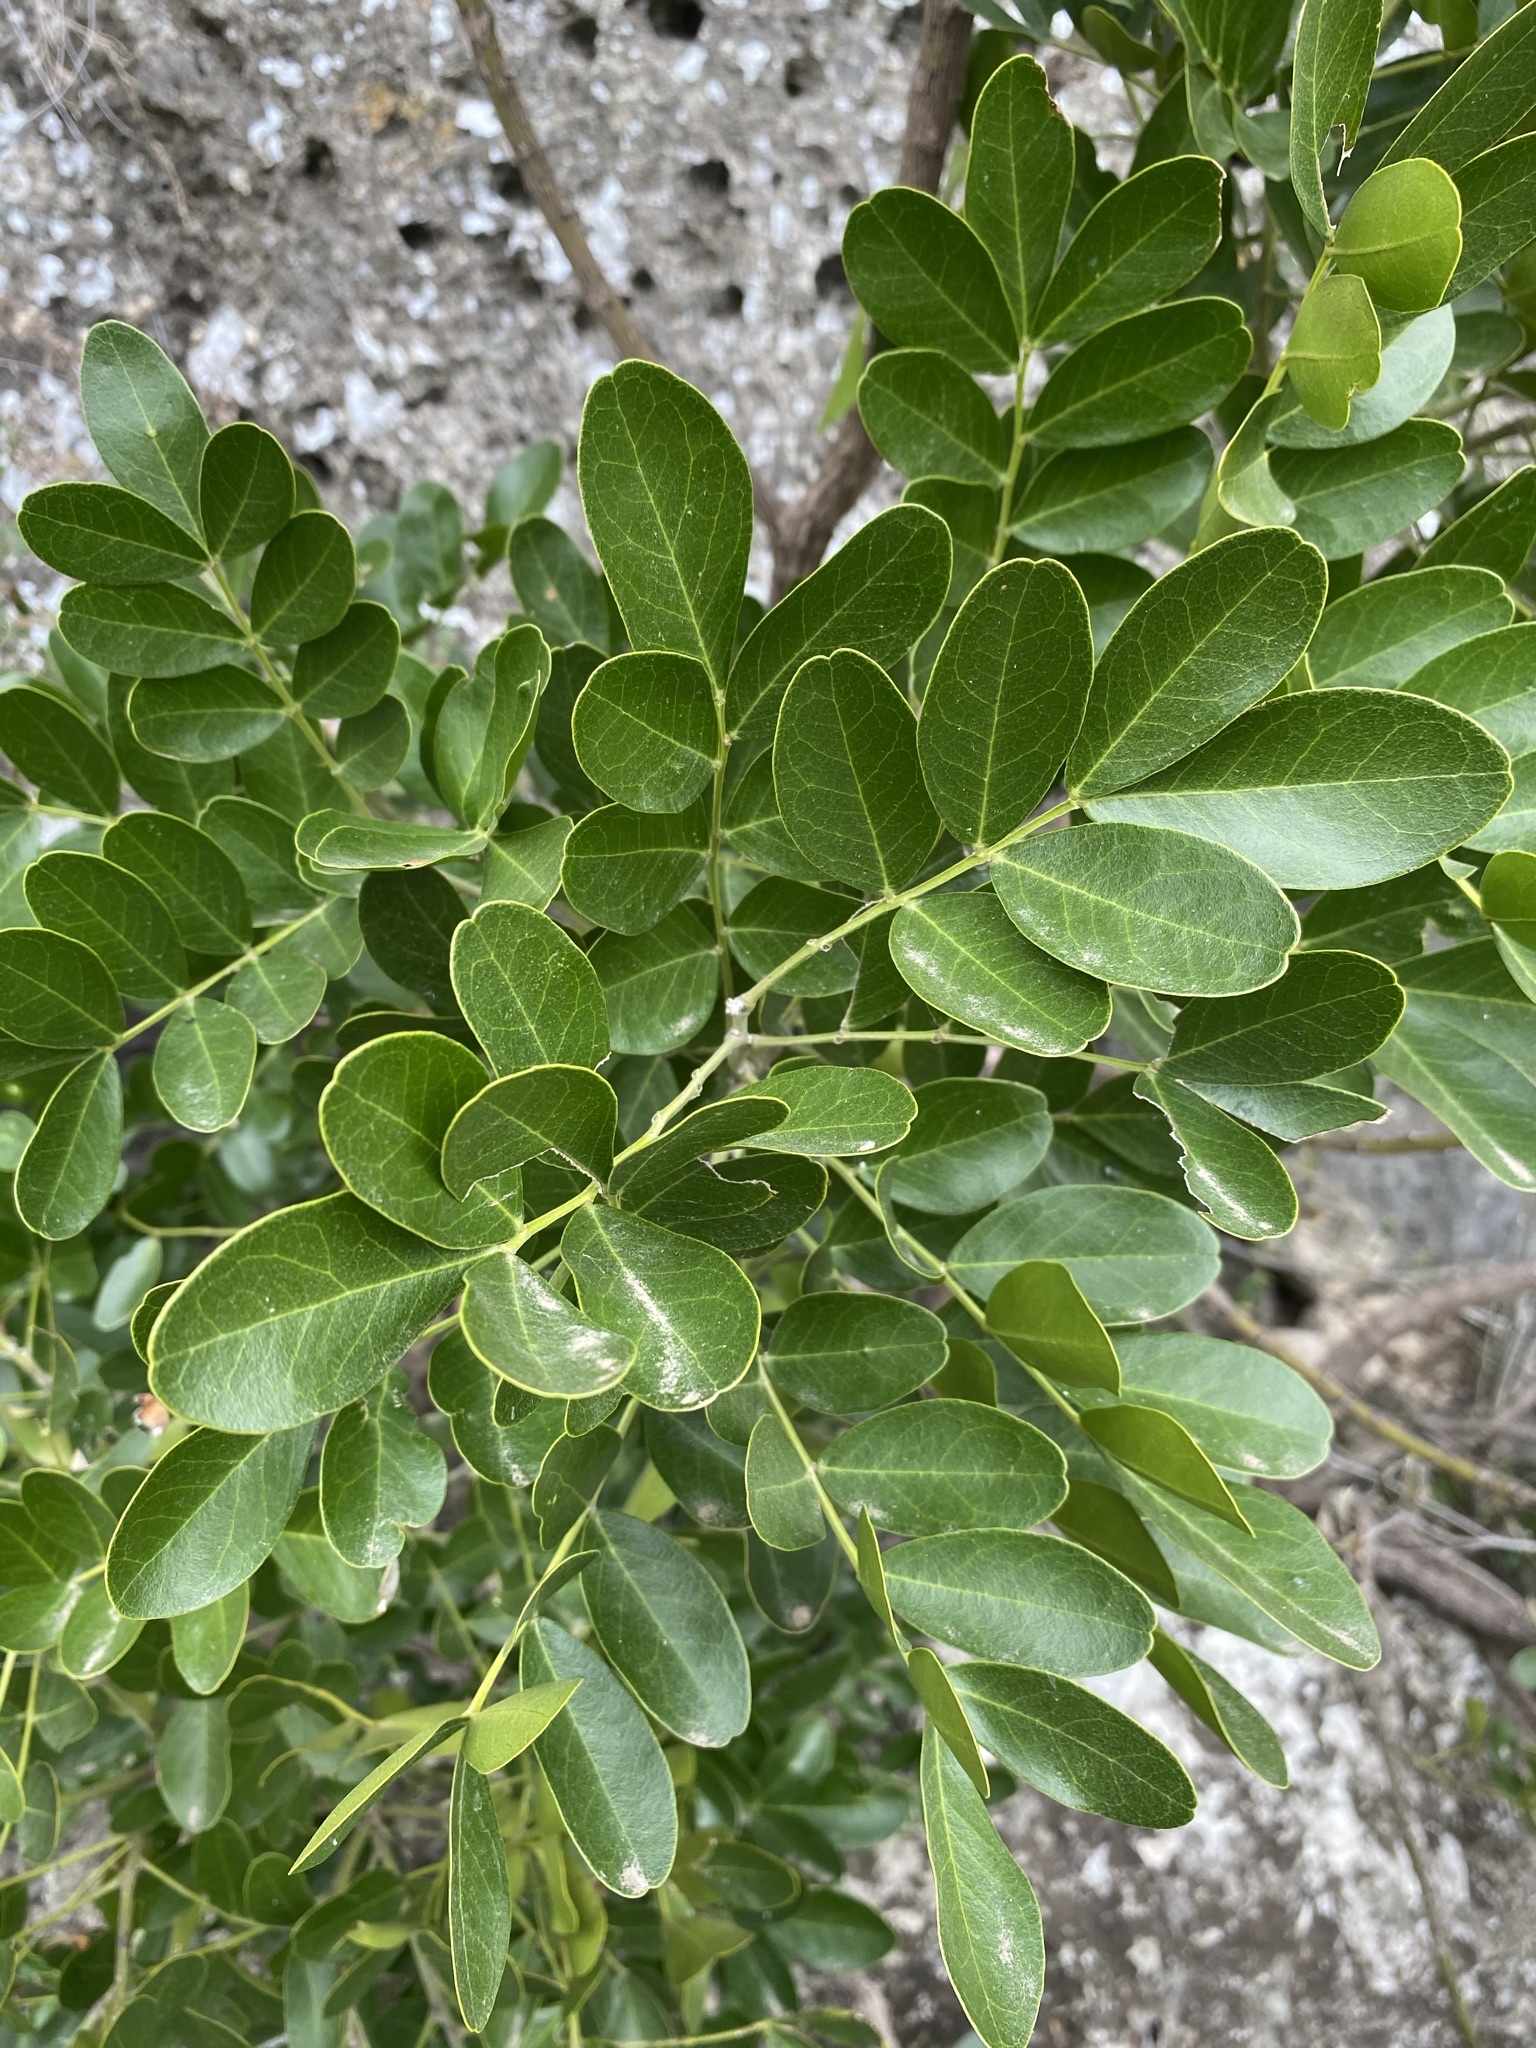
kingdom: Plantae
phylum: Tracheophyta
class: Magnoliopsida
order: Fabales
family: Fabaceae
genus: Dermatophyllum
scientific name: Dermatophyllum secundiflorum
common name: Texas-mountain-laurel
